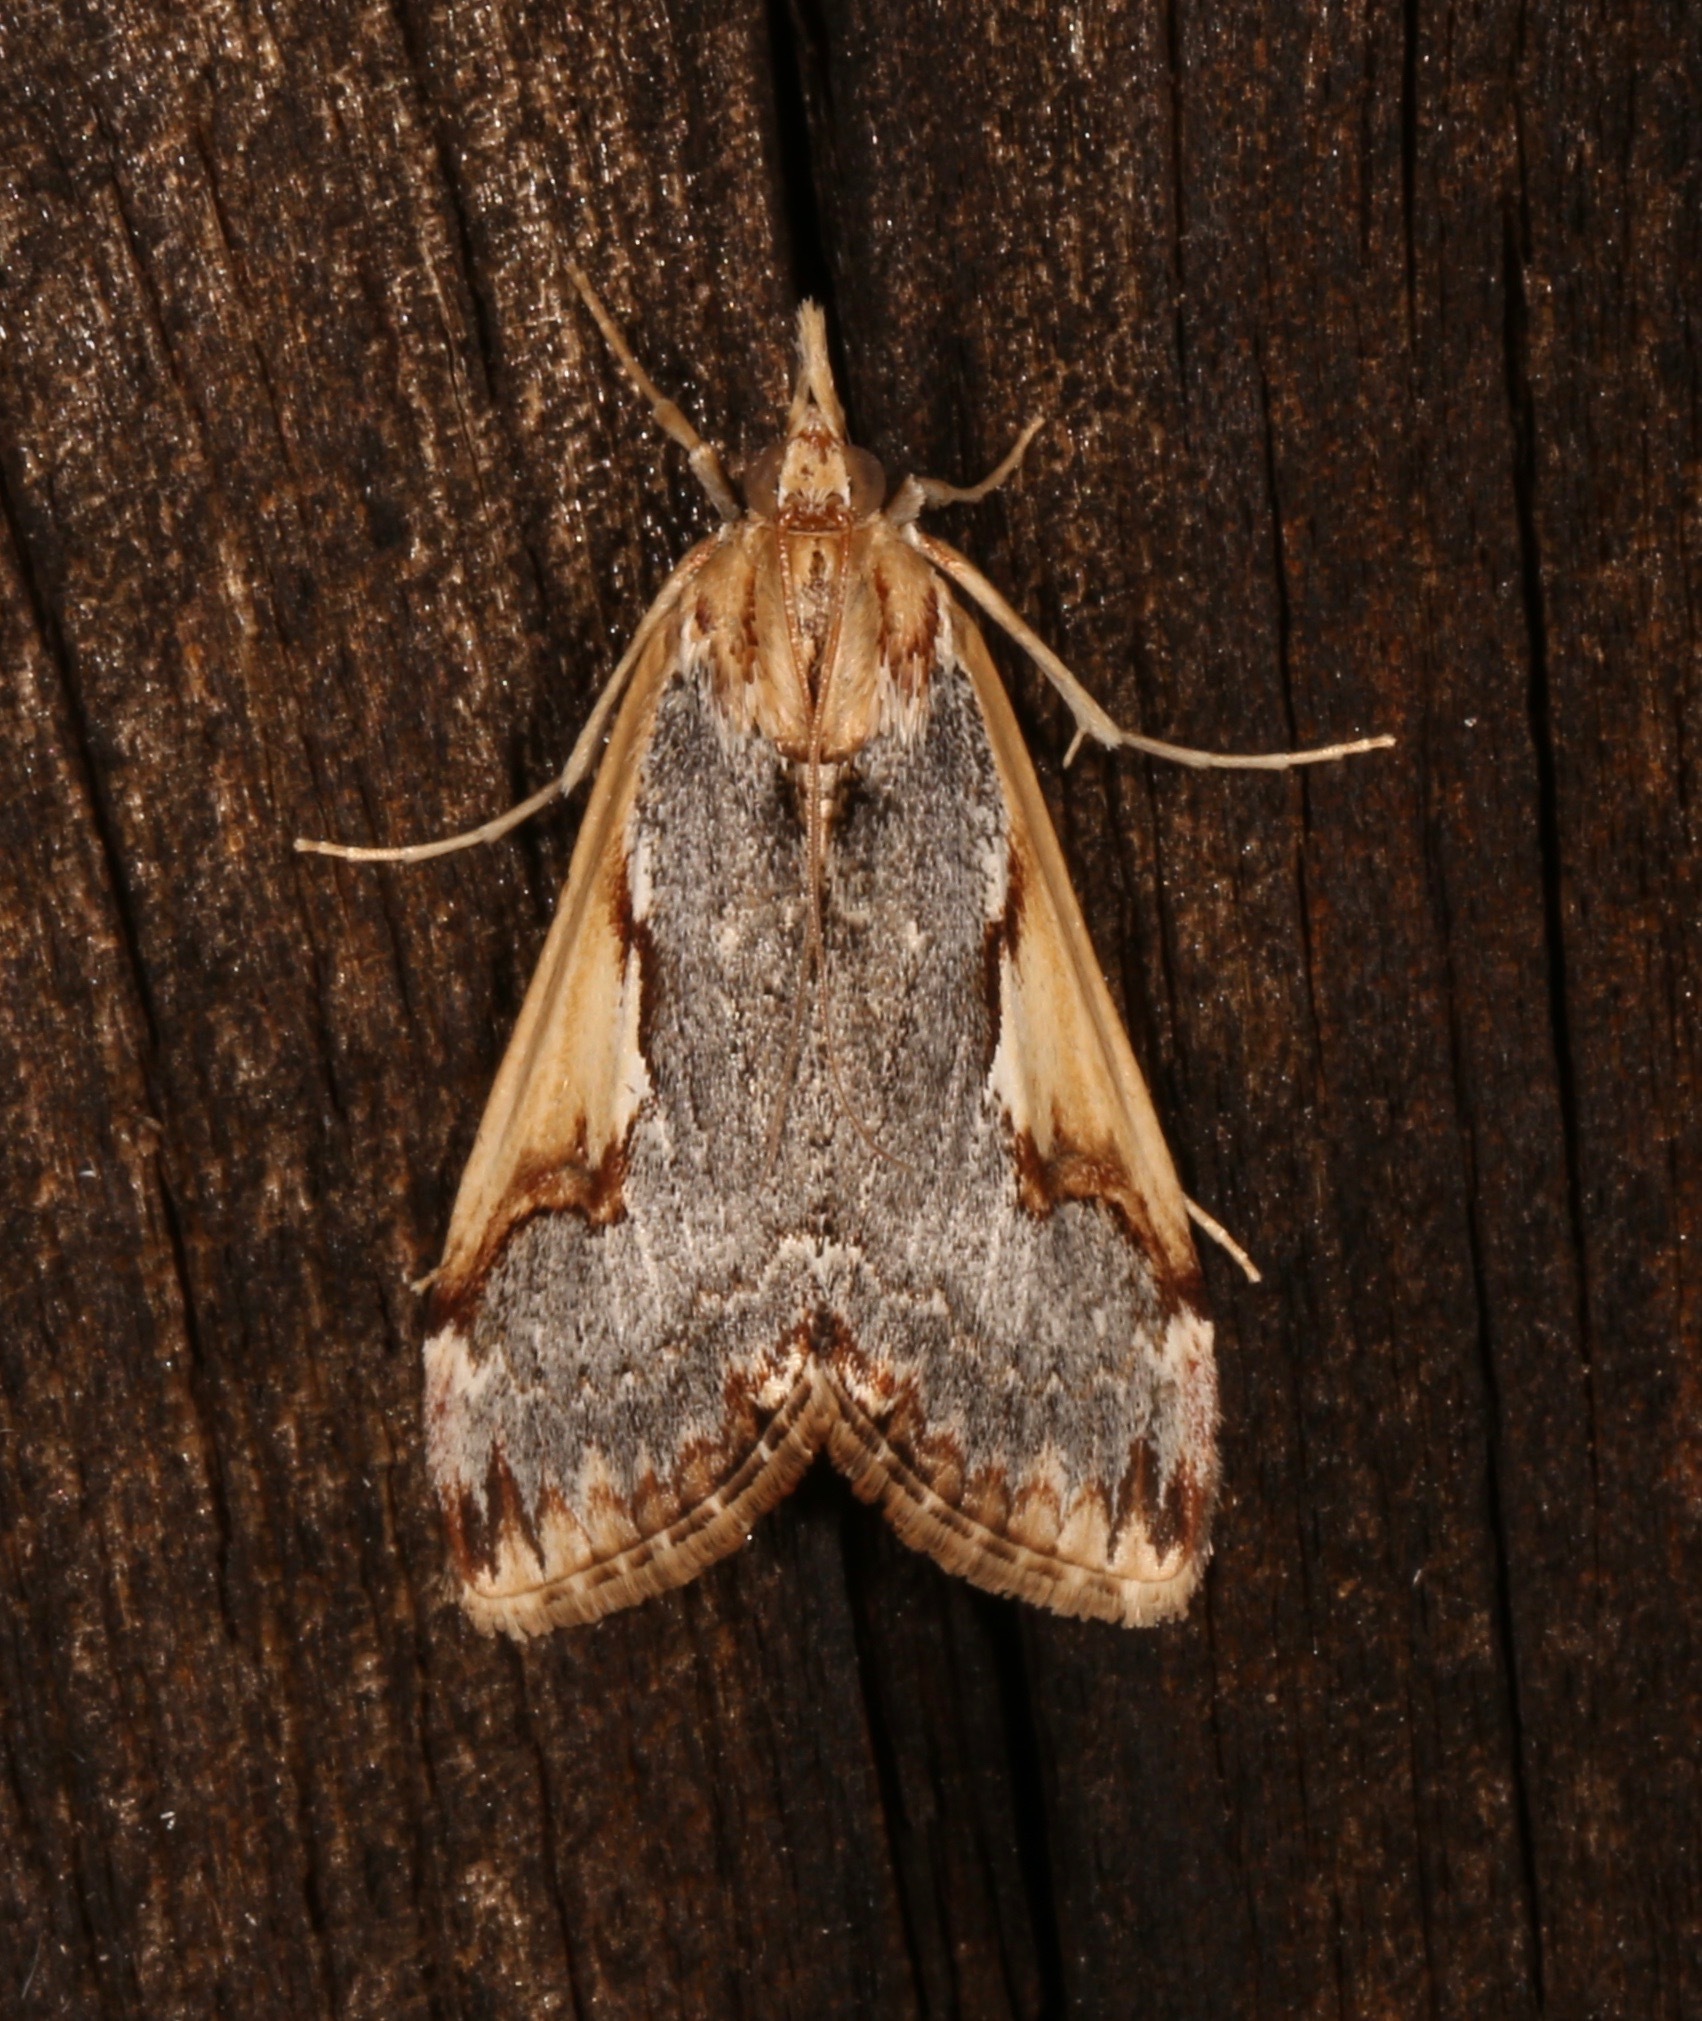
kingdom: Animalia
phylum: Arthropoda
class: Insecta
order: Lepidoptera
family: Crambidae
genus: Loxostege
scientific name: Loxostege albiceralis
